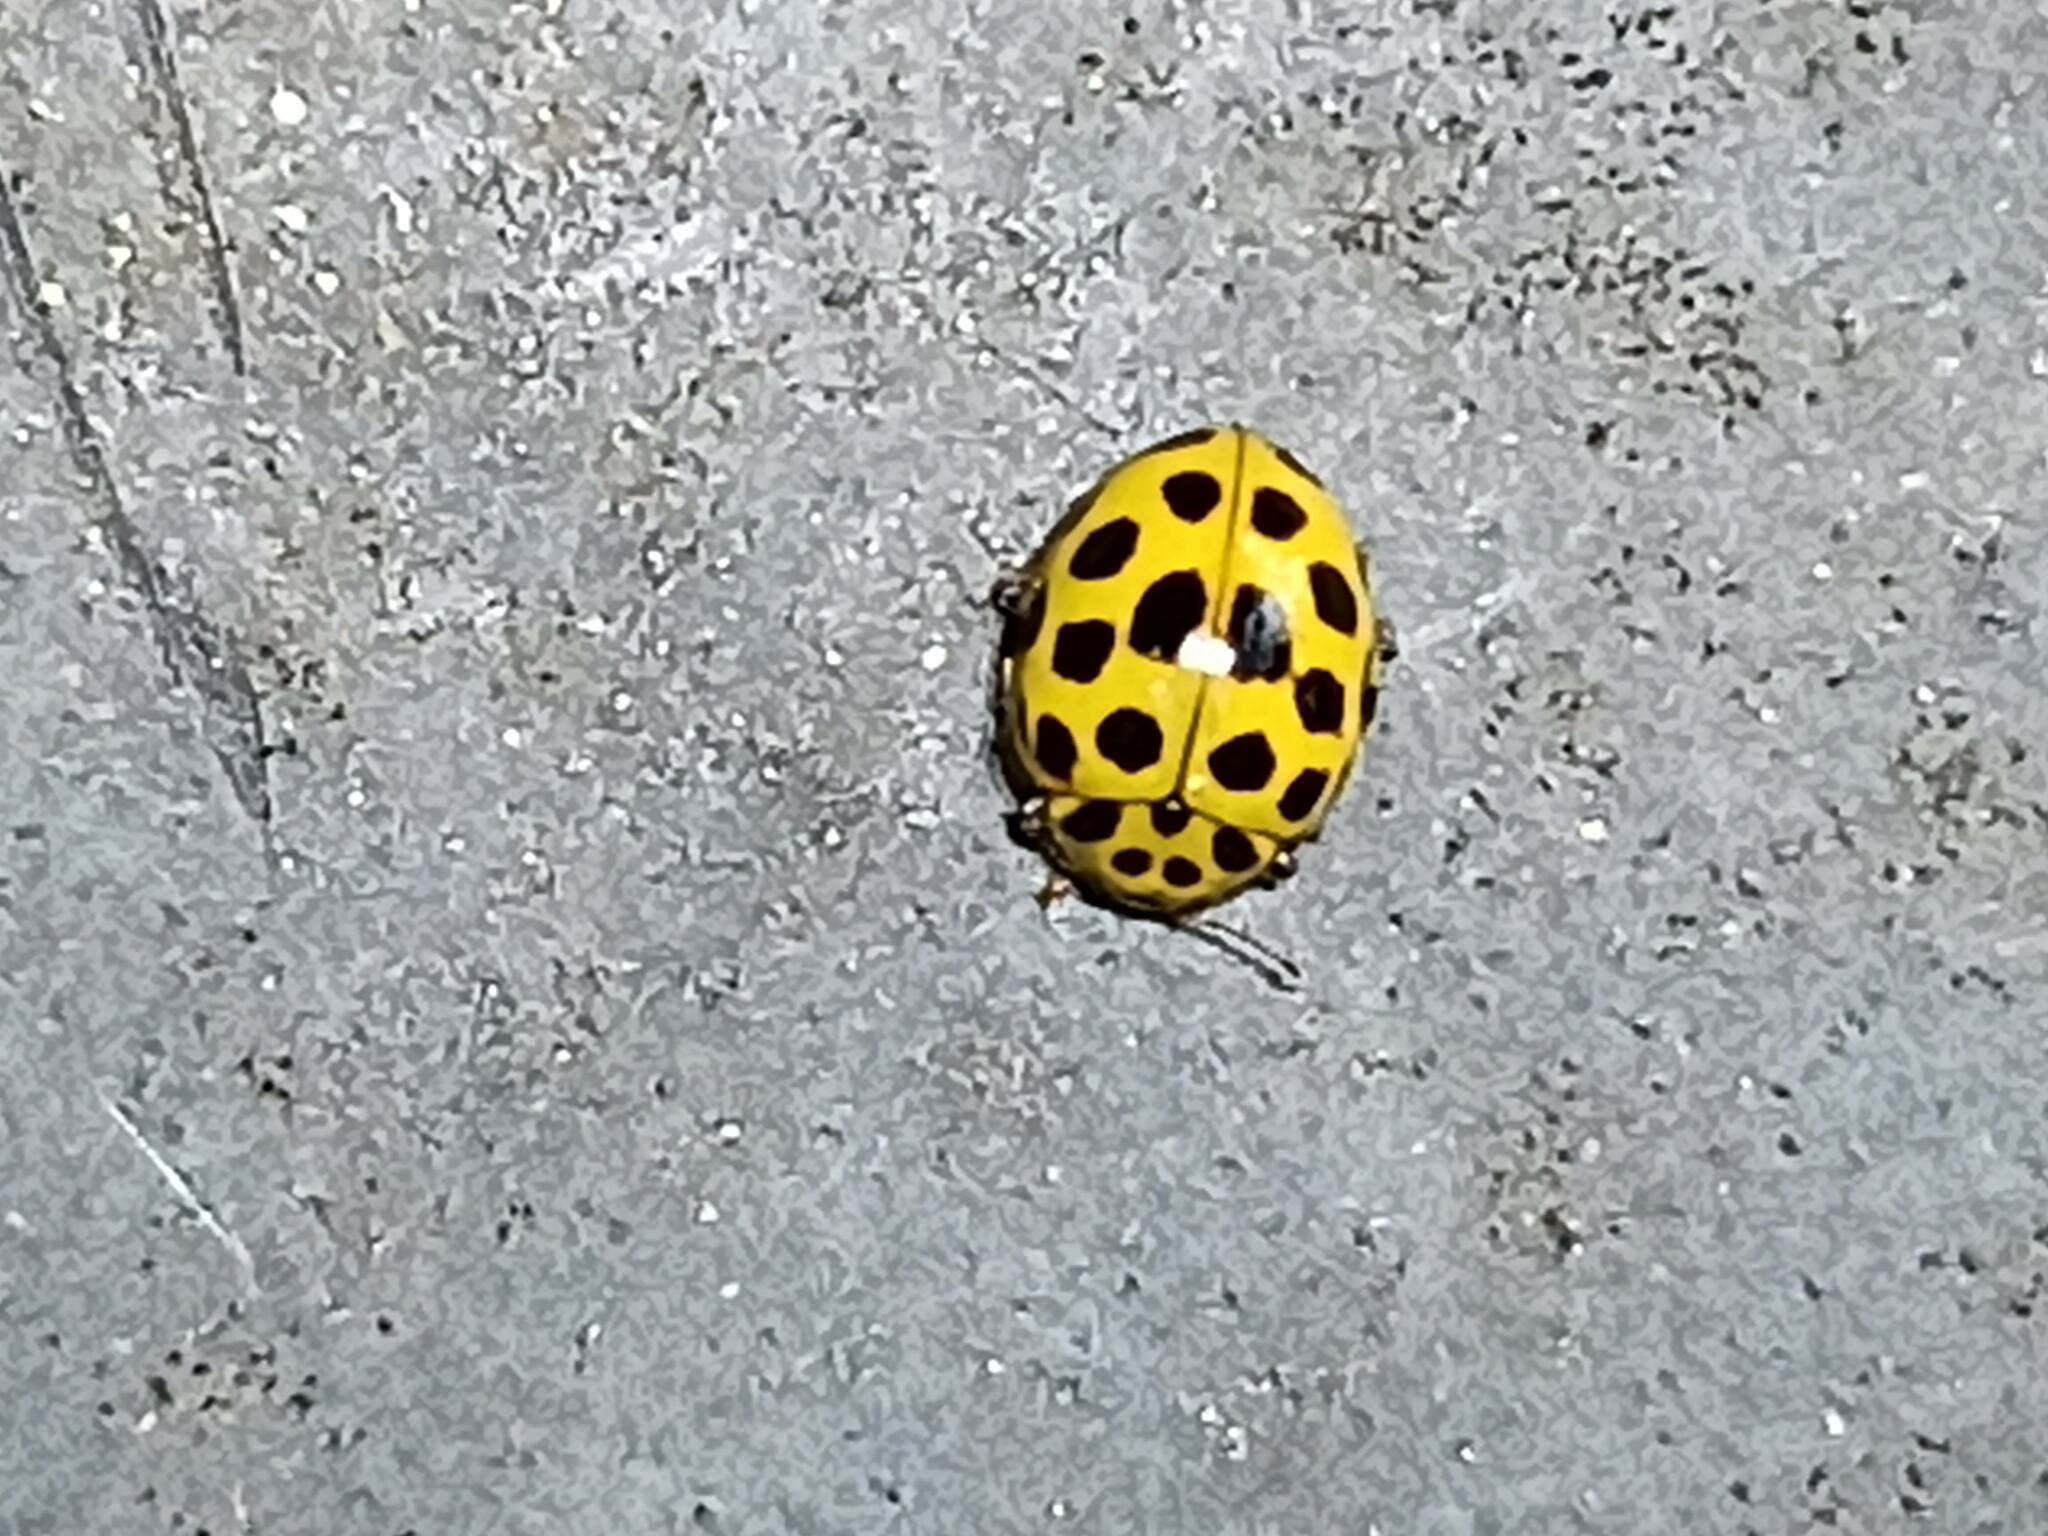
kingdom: Animalia
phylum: Arthropoda
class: Insecta
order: Coleoptera
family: Coccinellidae
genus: Psyllobora
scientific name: Psyllobora vigintiduopunctata
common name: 22-spot ladybird
